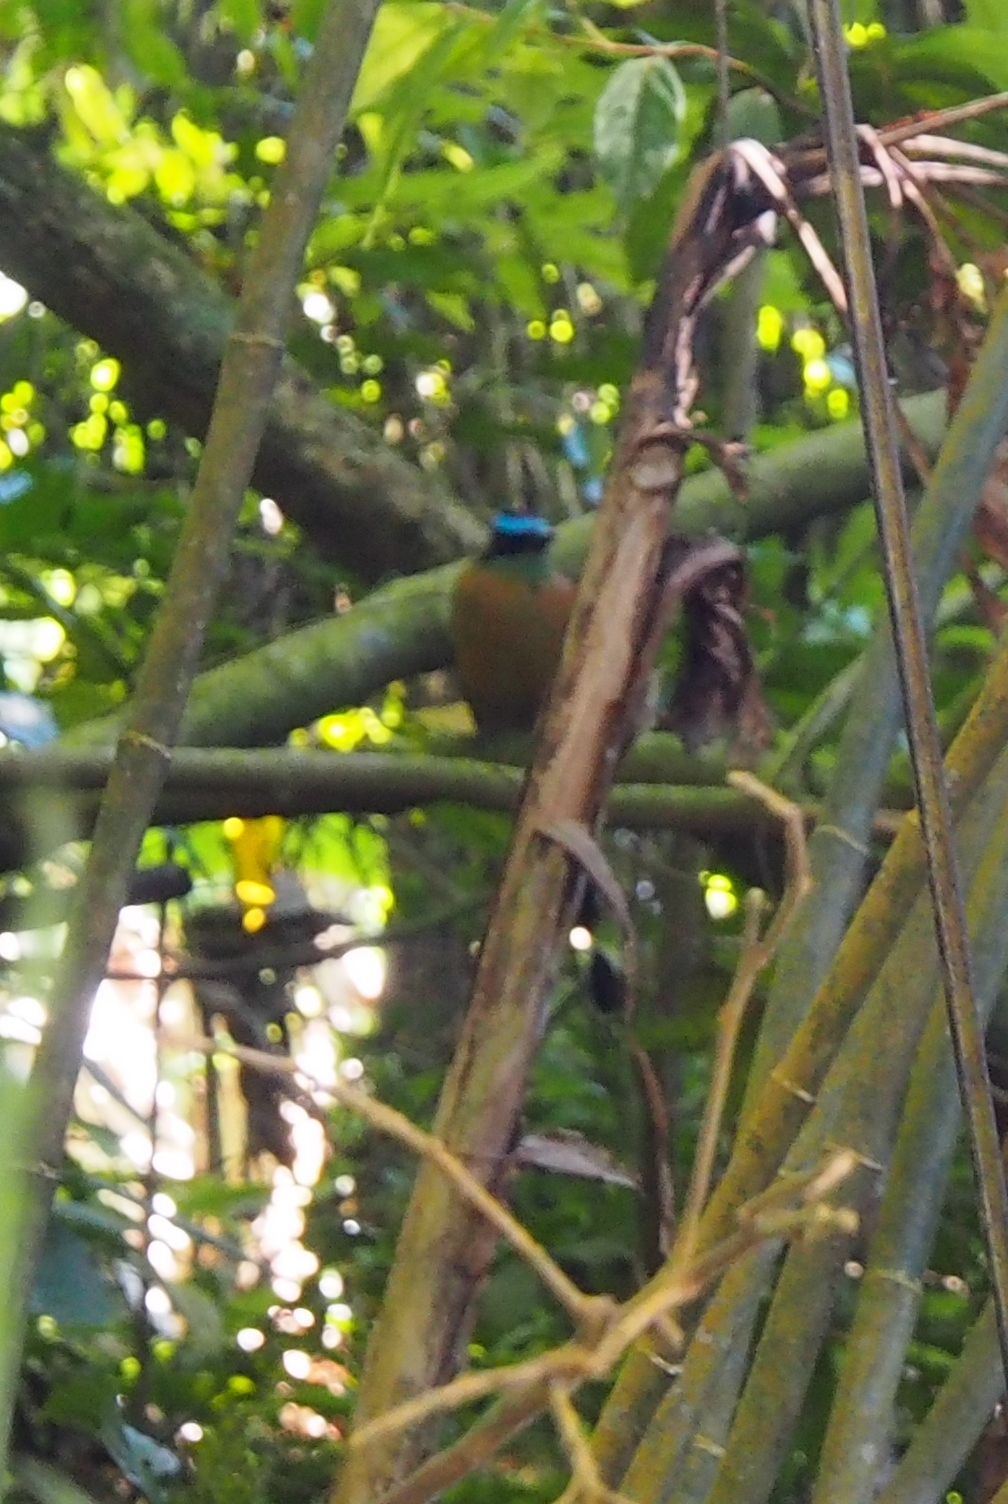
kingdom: Animalia
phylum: Chordata
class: Aves
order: Coraciiformes
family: Momotidae
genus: Momotus
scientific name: Momotus lessonii
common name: Lesson's motmot
